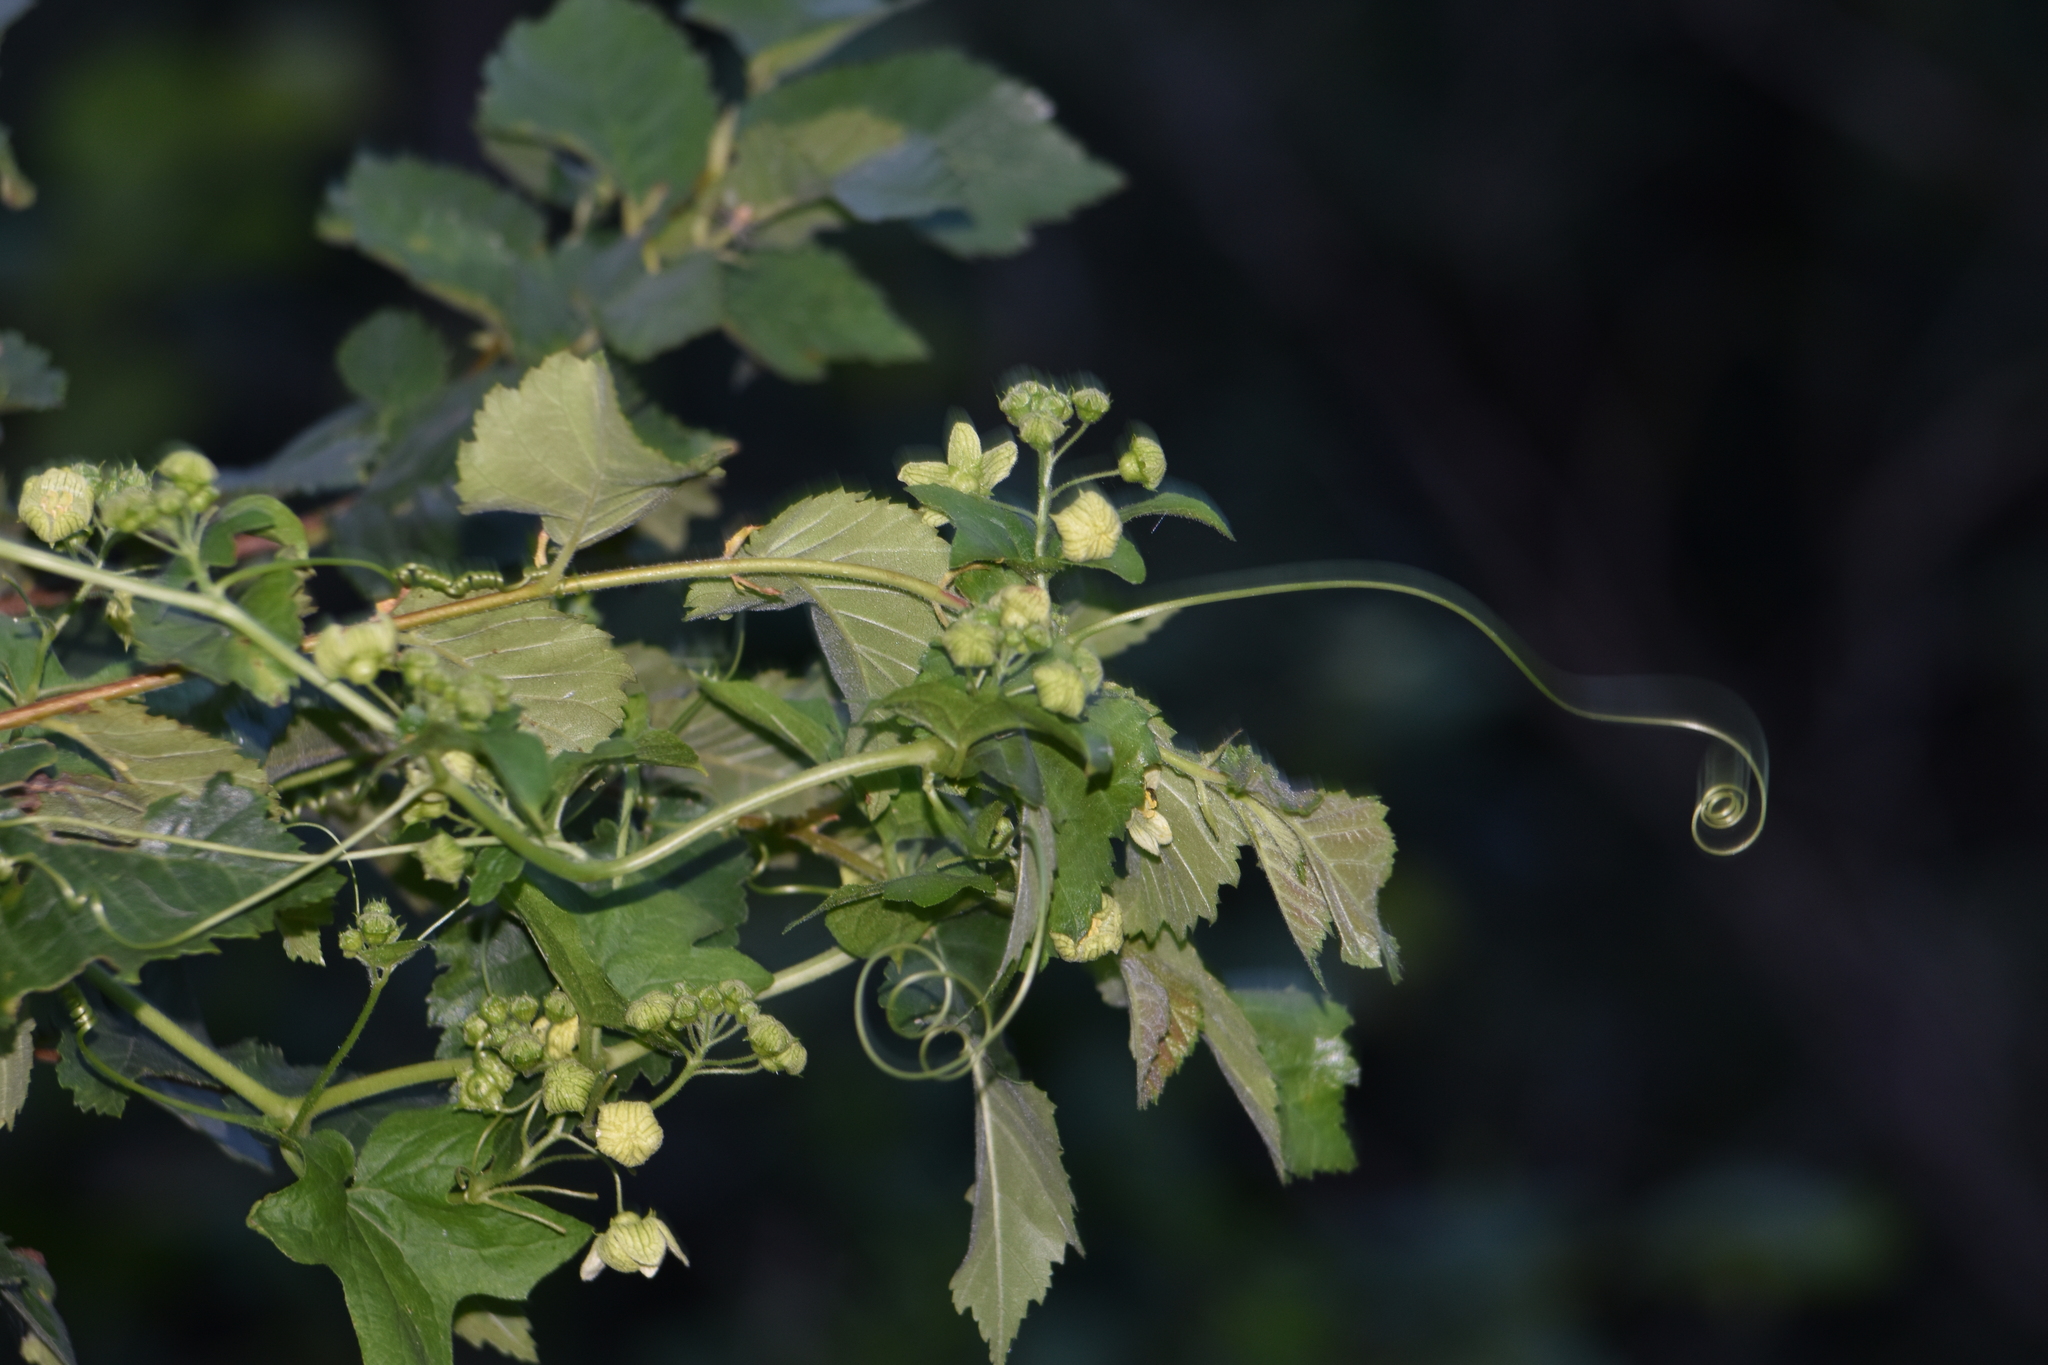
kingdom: Plantae
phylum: Tracheophyta
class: Magnoliopsida
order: Cucurbitales
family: Cucurbitaceae
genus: Bryonia
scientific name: Bryonia cretica
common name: Cretan bryony
